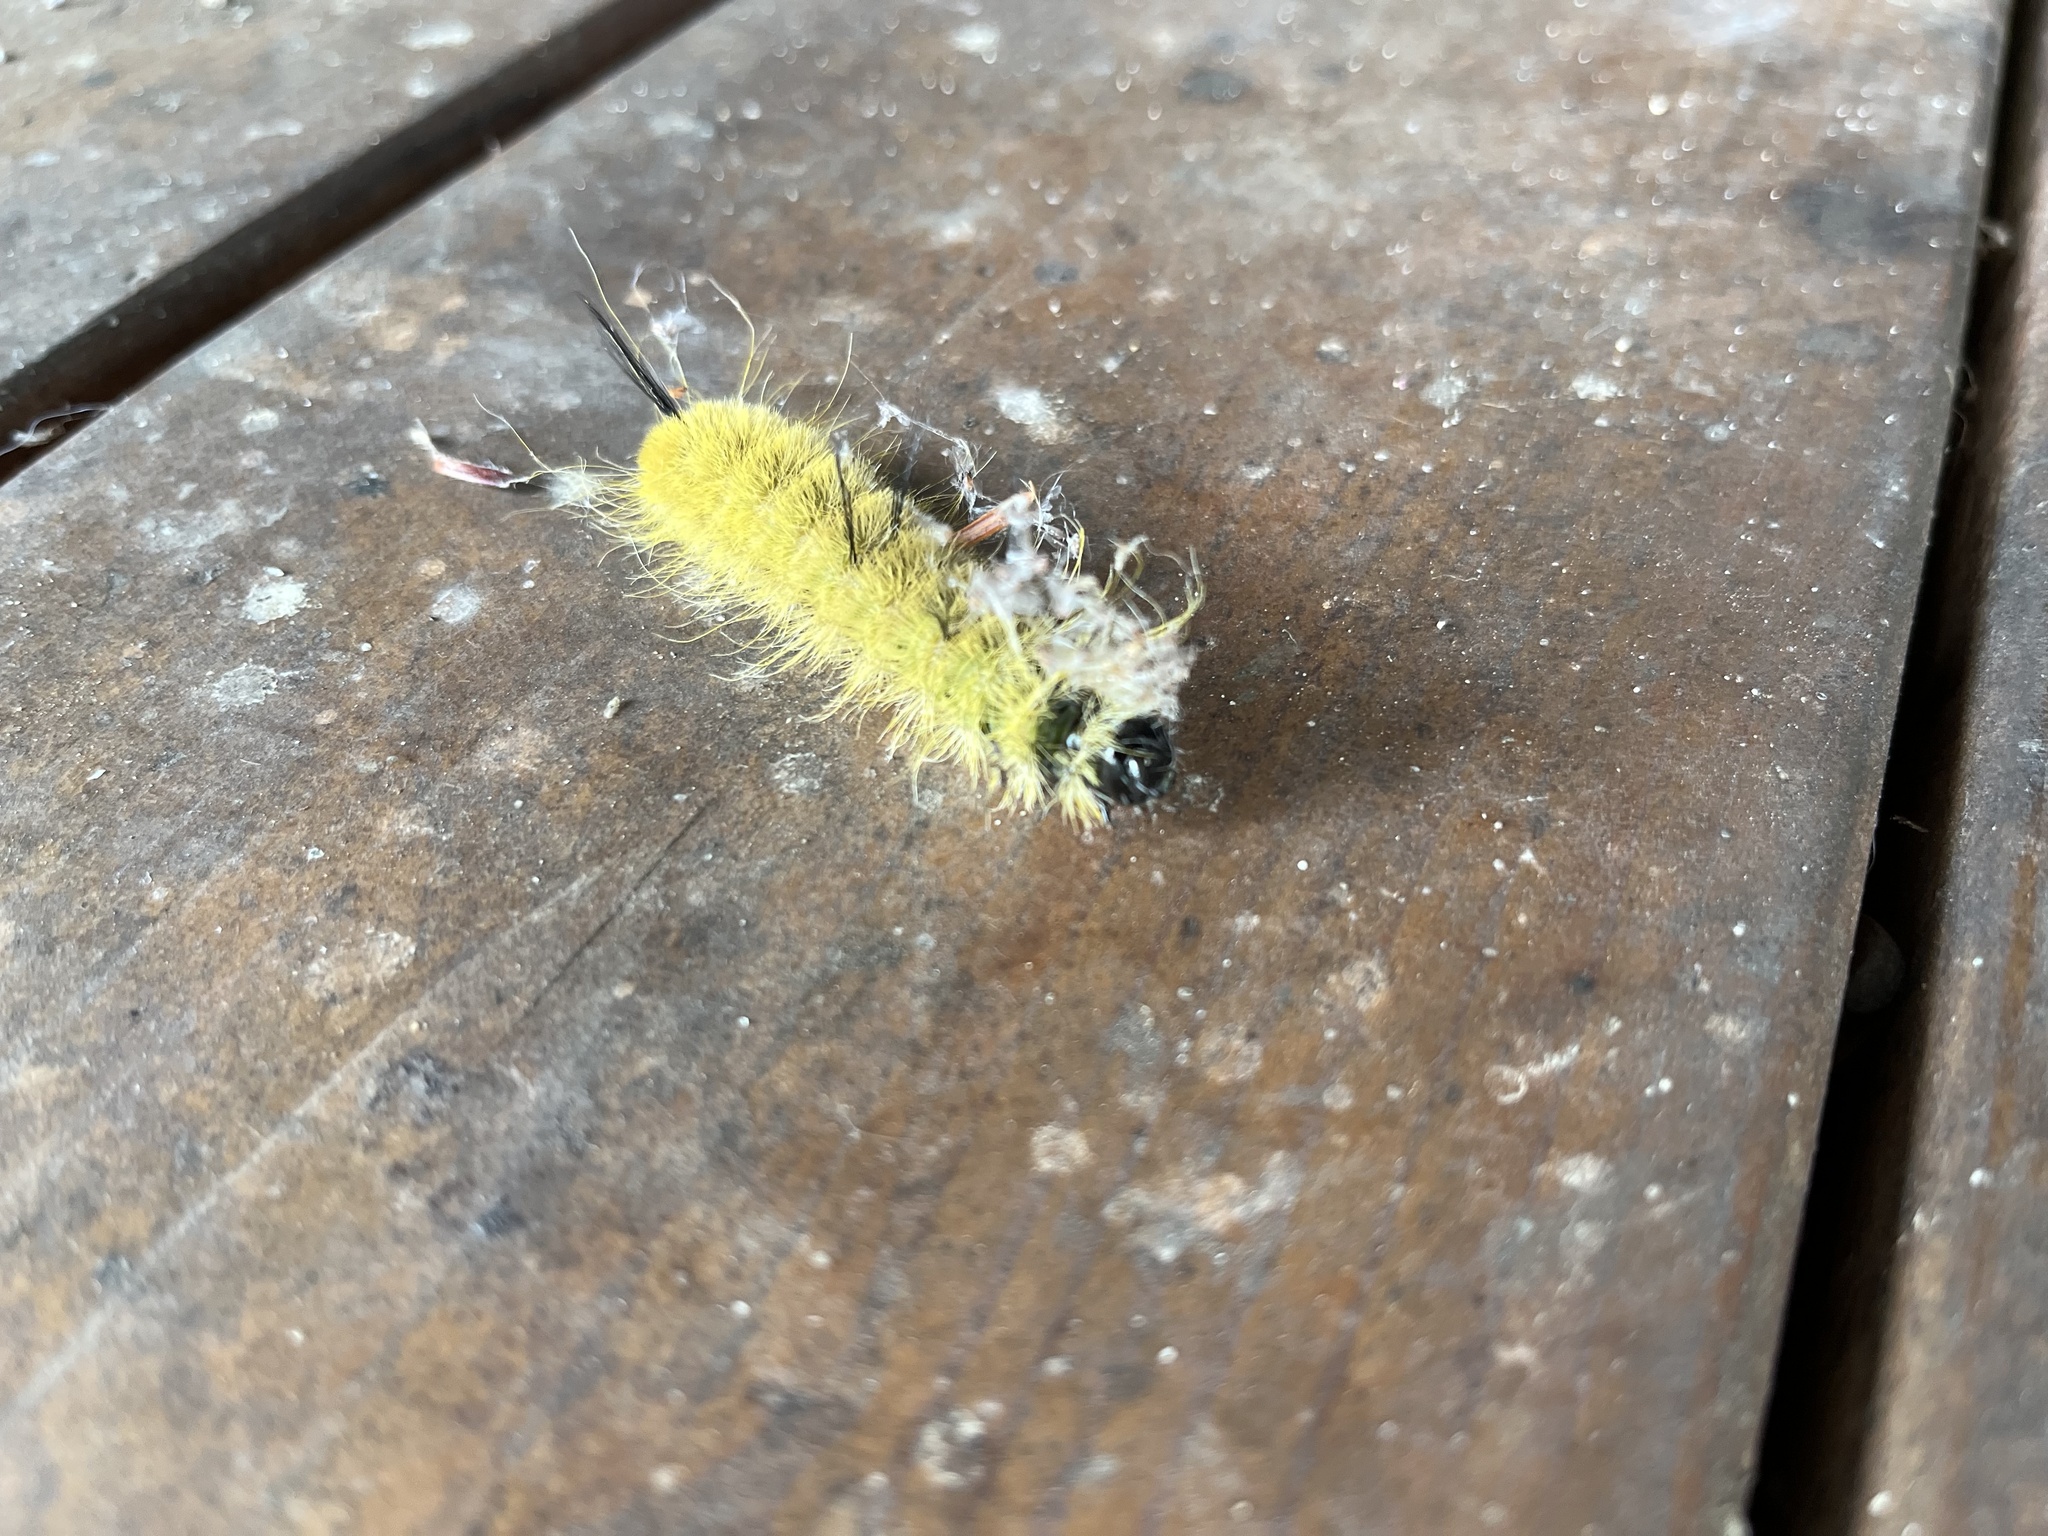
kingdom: Animalia
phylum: Arthropoda
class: Insecta
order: Lepidoptera
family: Noctuidae
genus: Acronicta
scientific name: Acronicta americana
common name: American dagger
